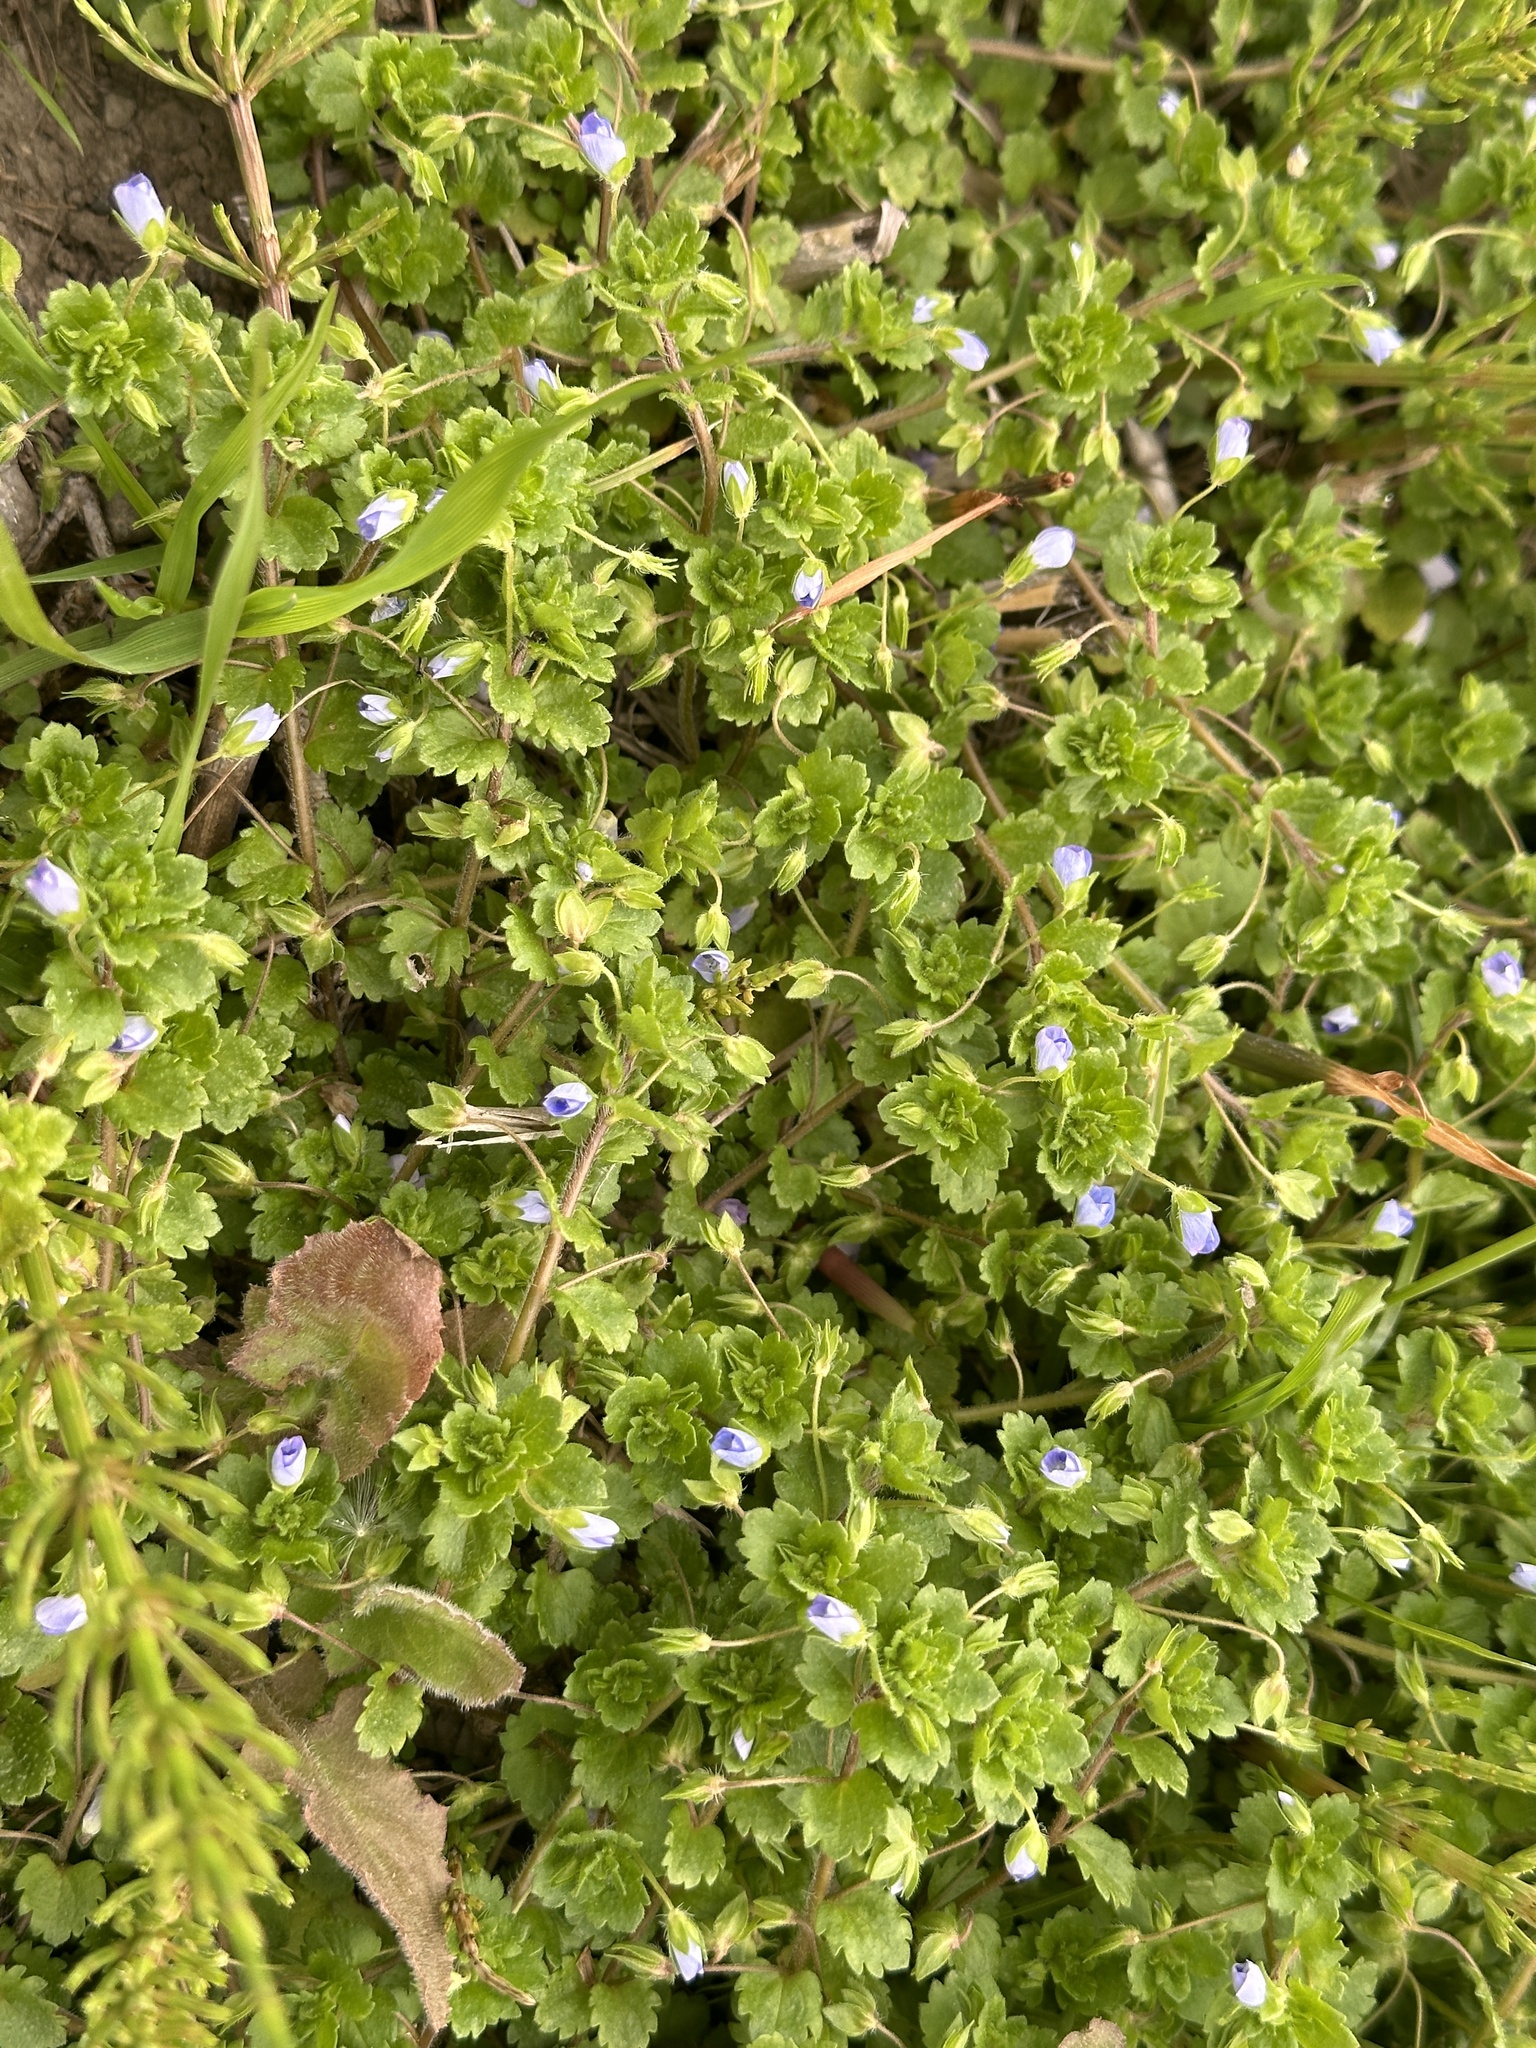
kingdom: Plantae
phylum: Tracheophyta
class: Magnoliopsida
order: Lamiales
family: Plantaginaceae
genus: Veronica
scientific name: Veronica persica
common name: Common field-speedwell
